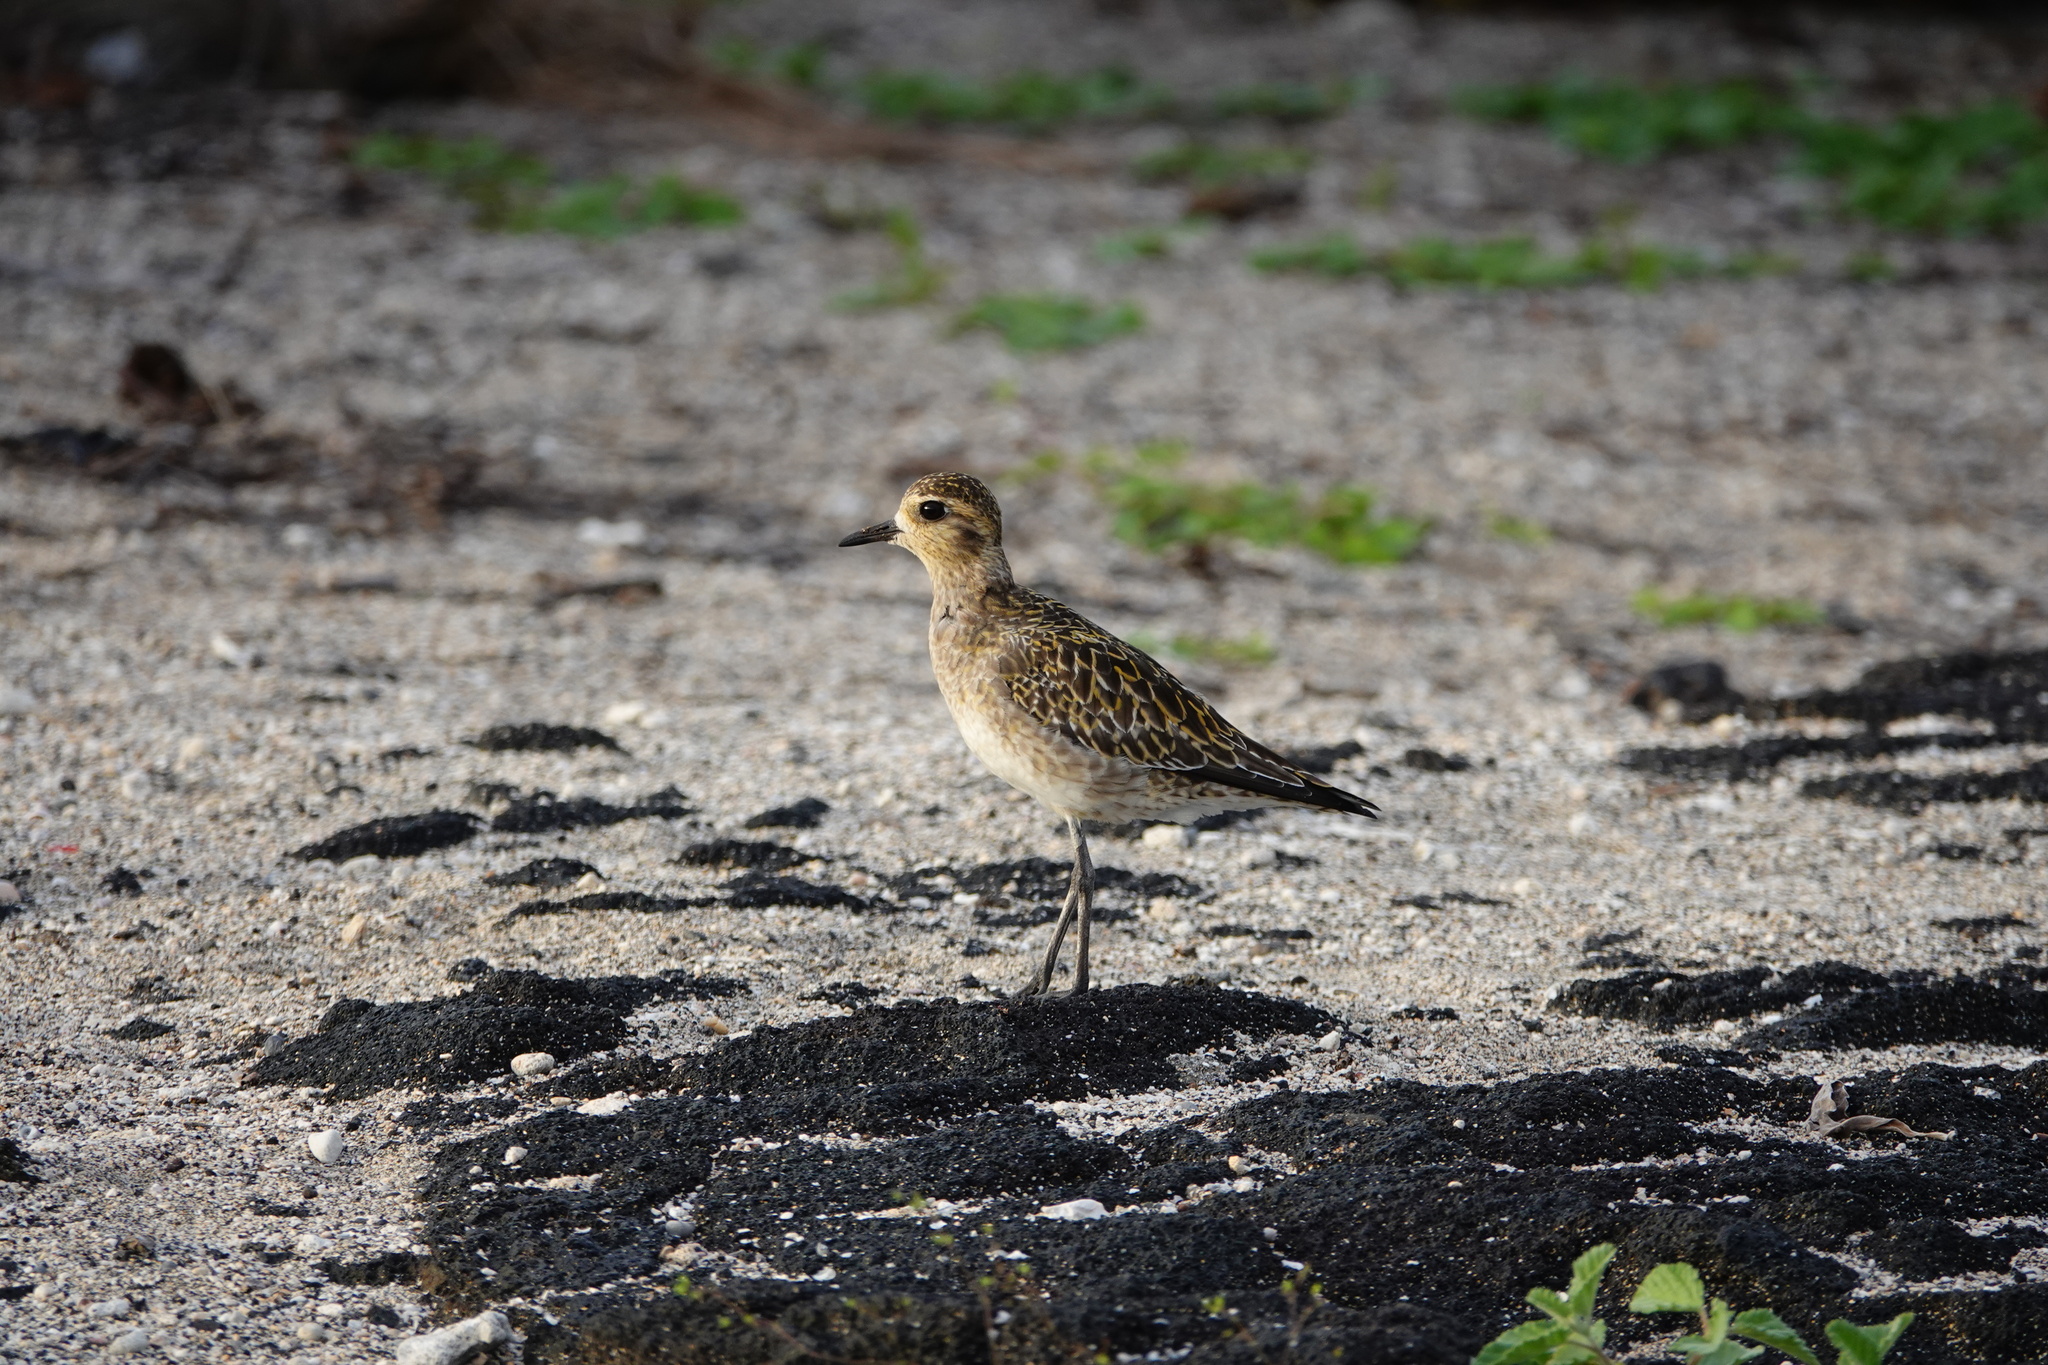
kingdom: Animalia
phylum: Chordata
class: Aves
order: Charadriiformes
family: Charadriidae
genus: Pluvialis
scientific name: Pluvialis fulva
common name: Pacific golden plover
